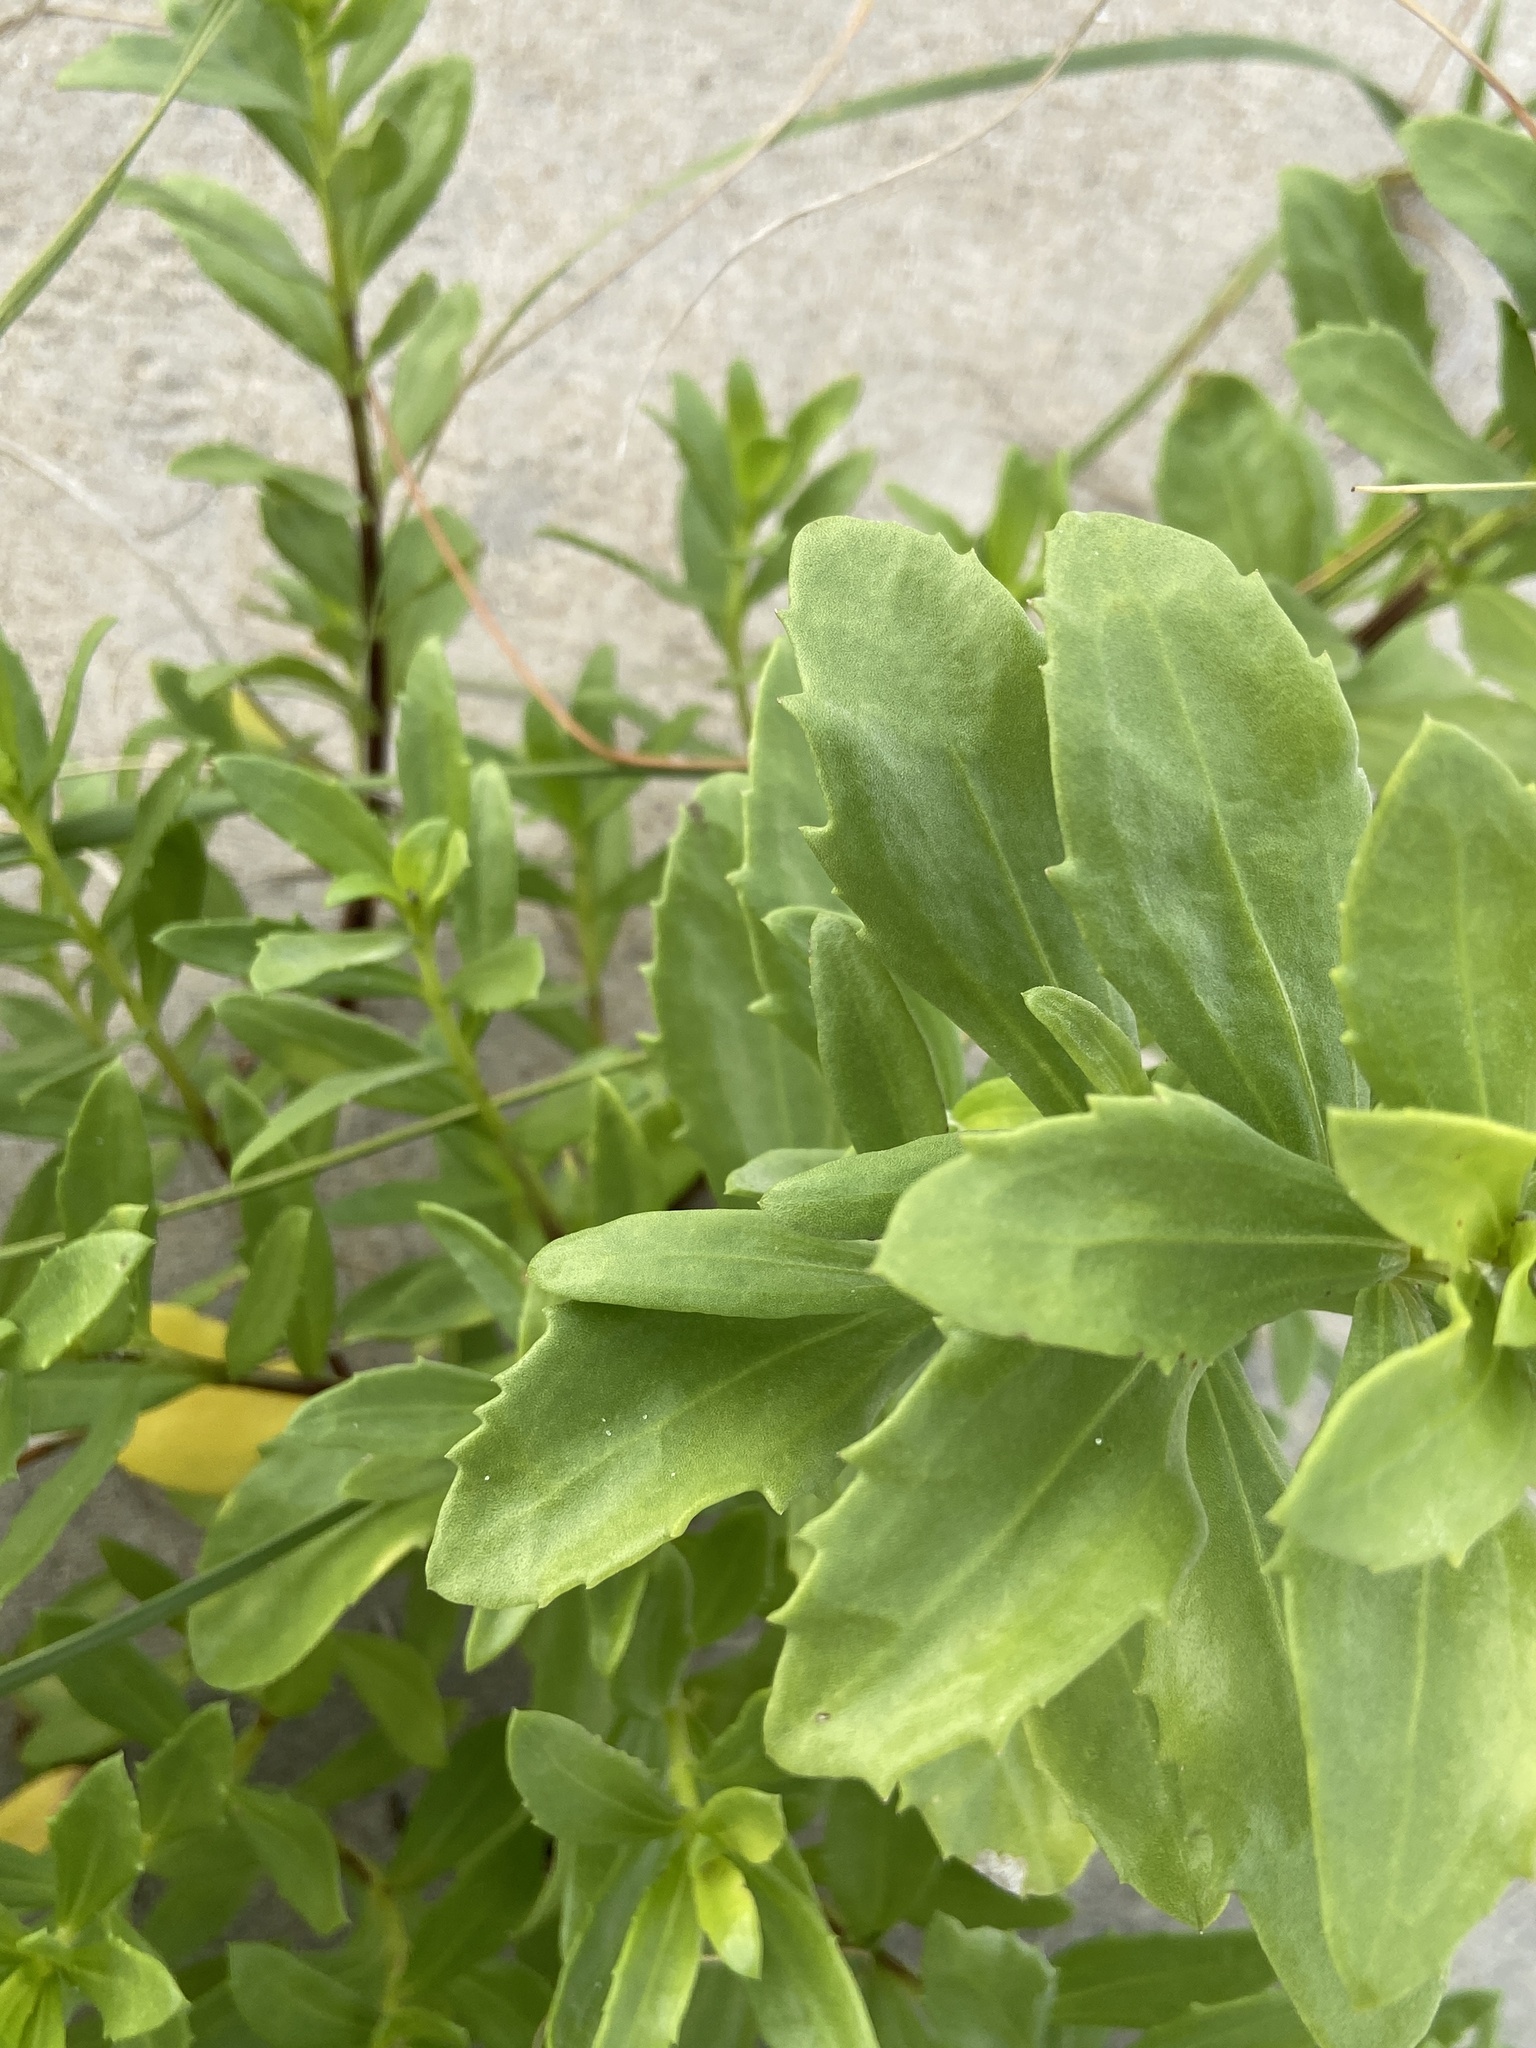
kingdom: Plantae
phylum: Tracheophyta
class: Magnoliopsida
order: Asterales
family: Asteraceae
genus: Iva
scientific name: Iva imbricata
